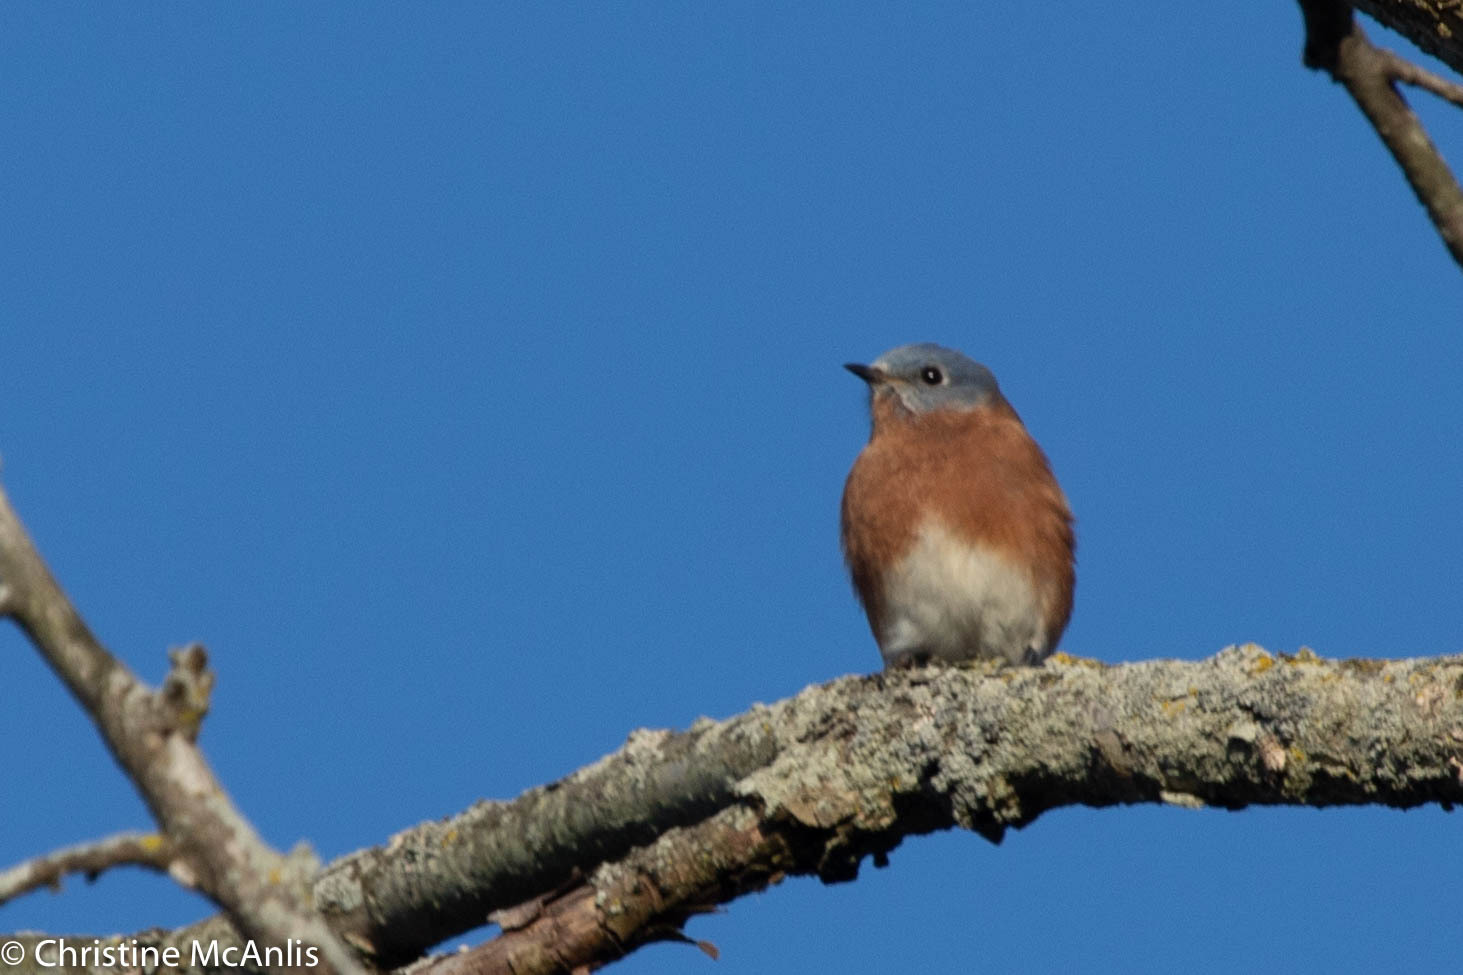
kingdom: Animalia
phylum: Chordata
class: Aves
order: Passeriformes
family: Turdidae
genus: Sialia
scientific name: Sialia sialis
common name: Eastern bluebird
